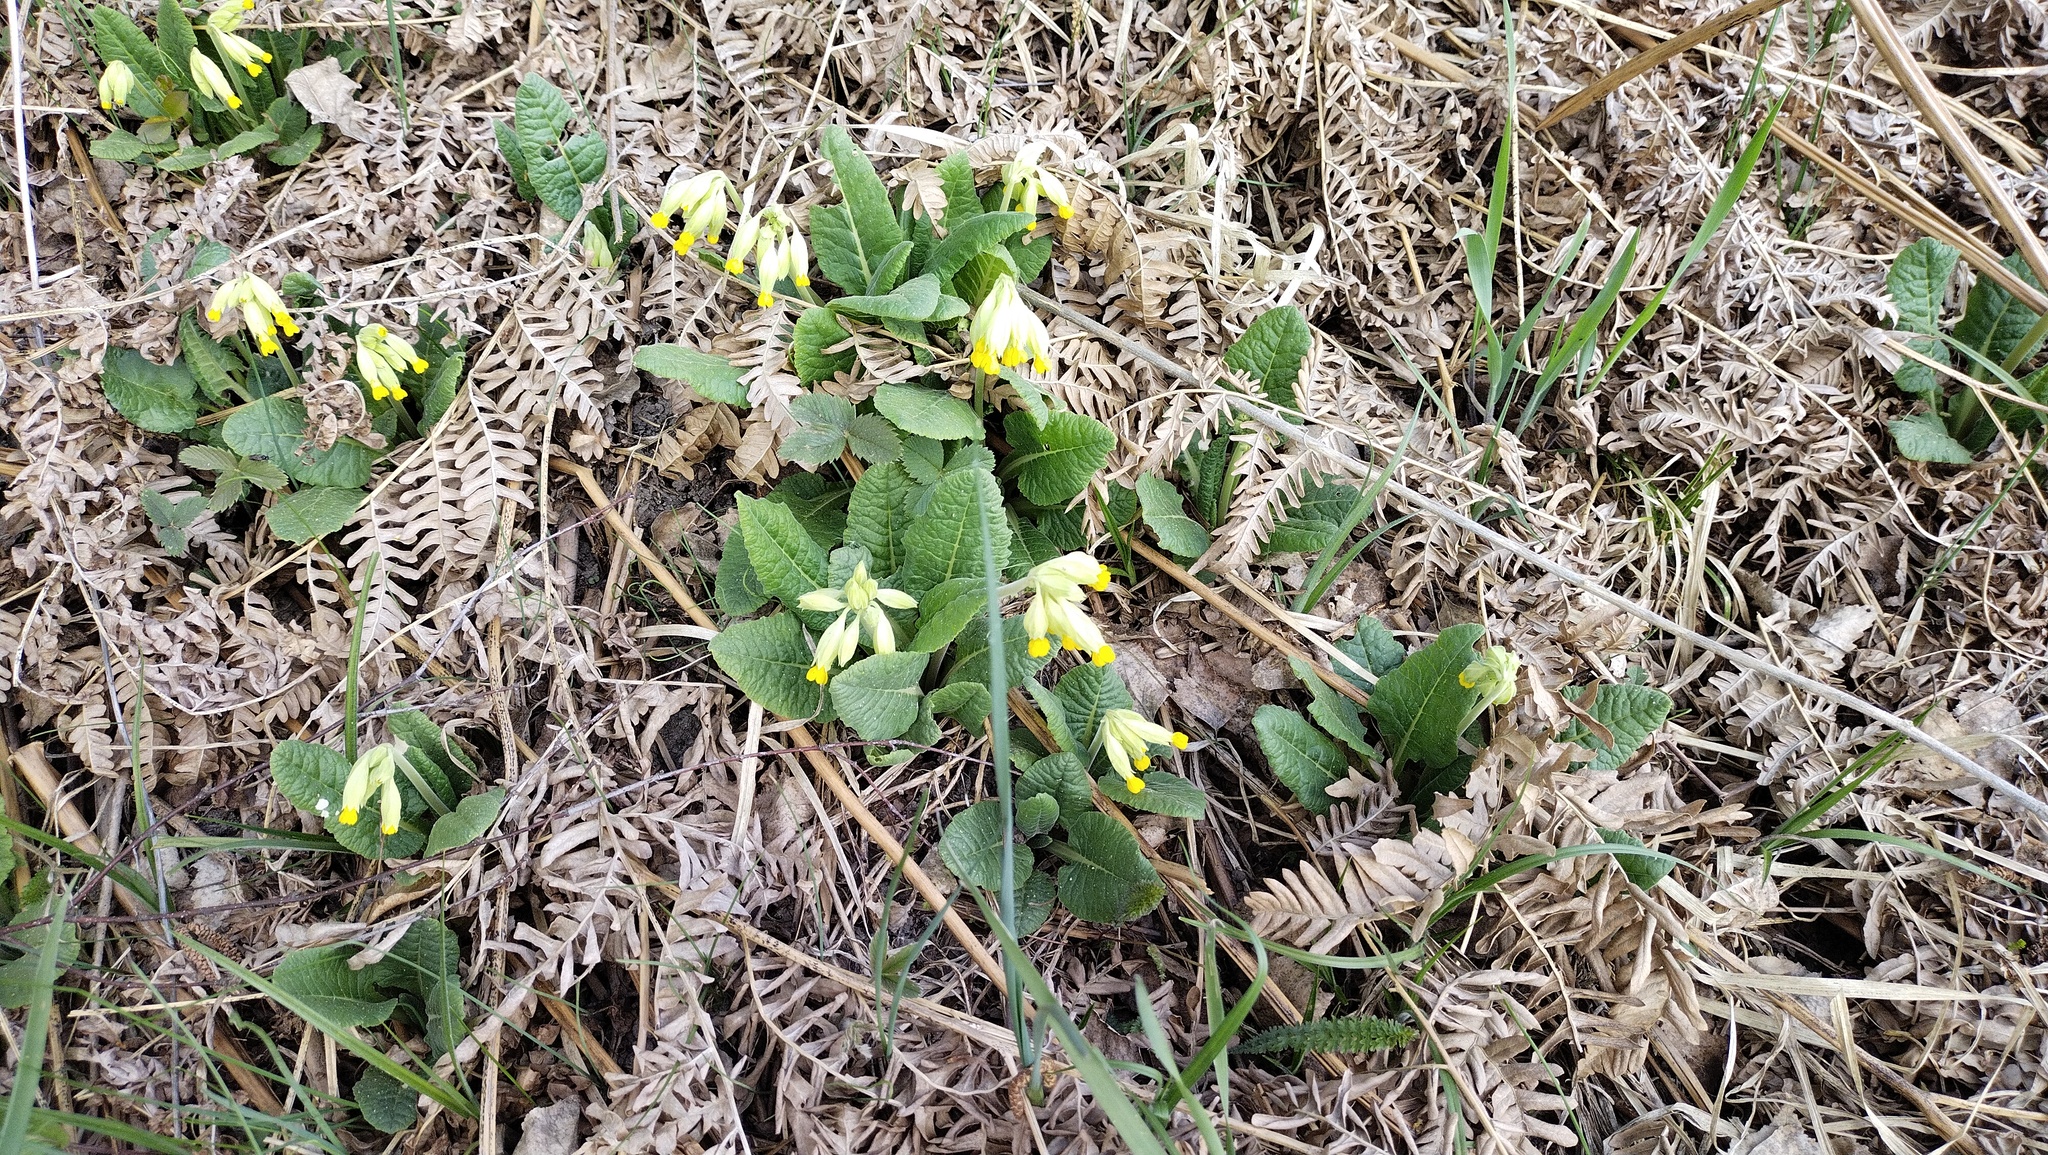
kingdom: Plantae
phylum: Tracheophyta
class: Magnoliopsida
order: Ericales
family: Primulaceae
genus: Primula
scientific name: Primula veris
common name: Cowslip
